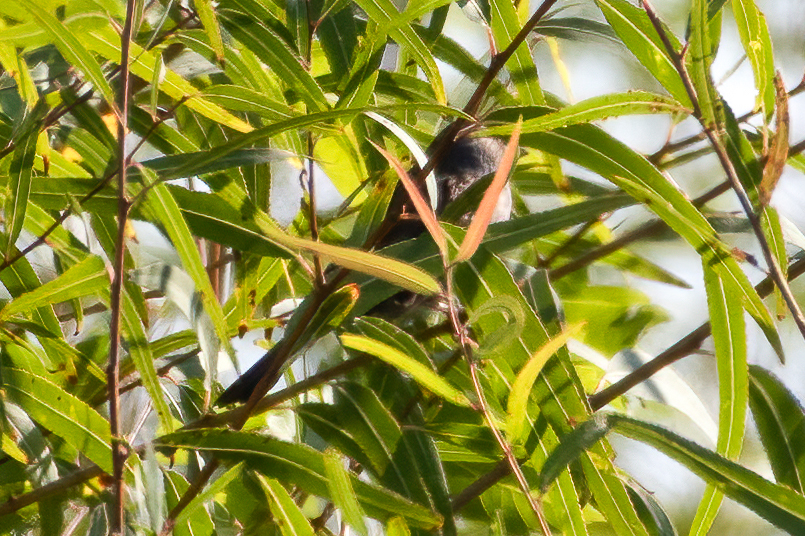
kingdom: Animalia
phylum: Chordata
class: Aves
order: Passeriformes
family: Passerellidae
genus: Zonotrichia
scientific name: Zonotrichia leucophrys
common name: White-crowned sparrow
